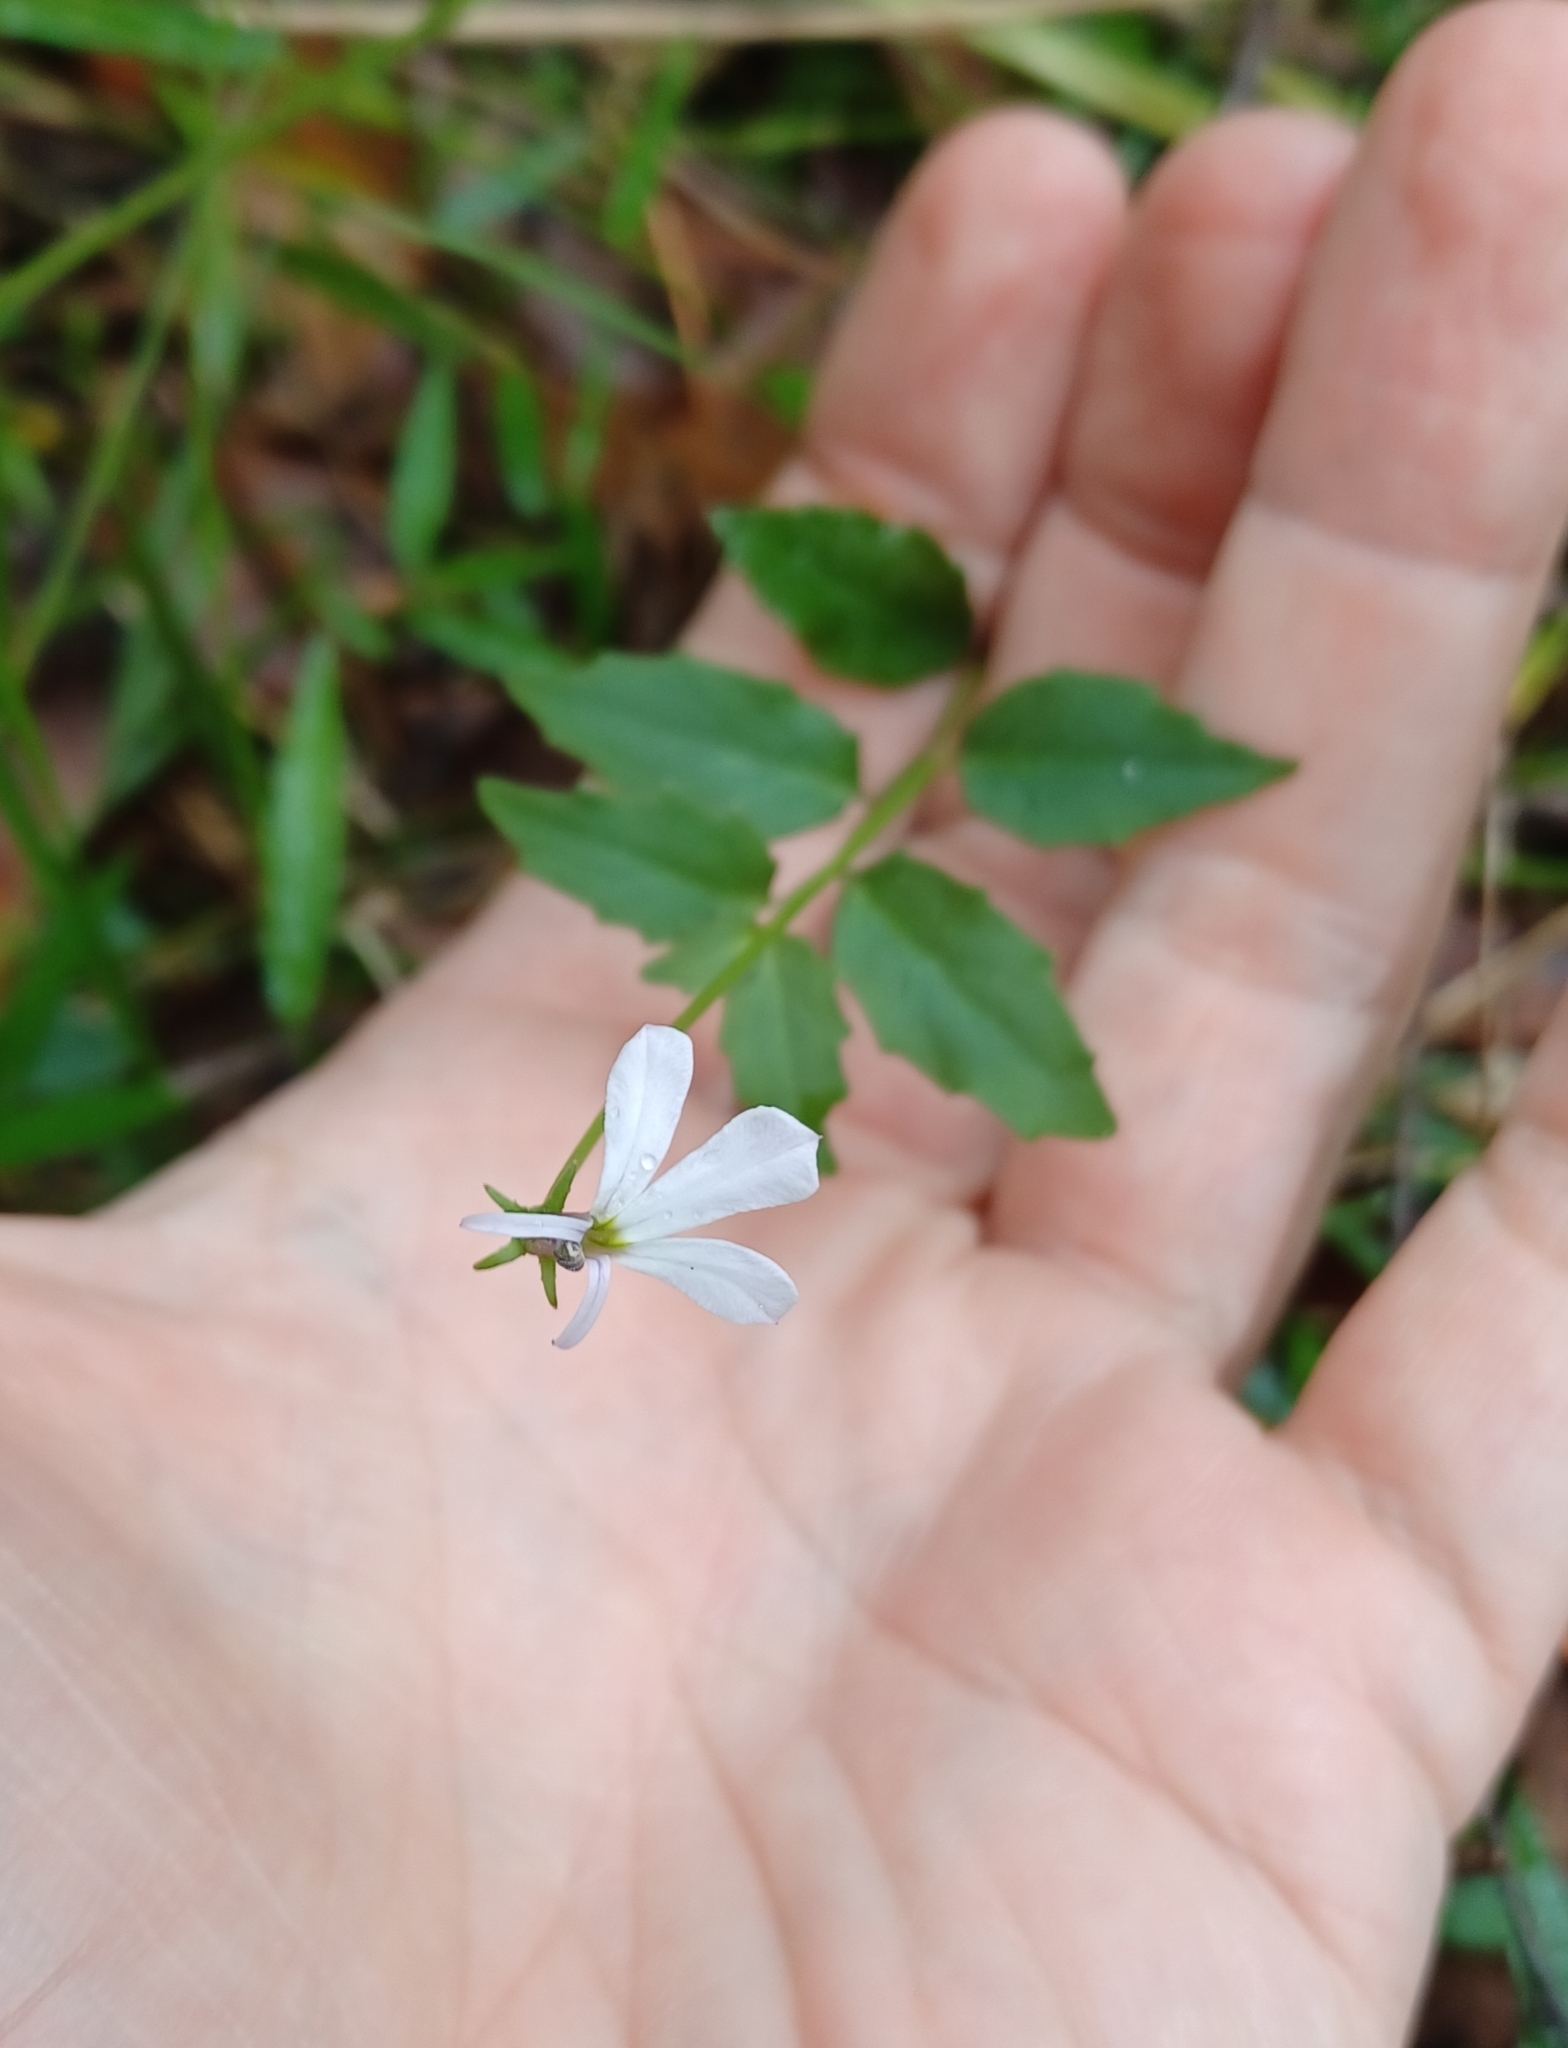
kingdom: Plantae
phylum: Tracheophyta
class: Magnoliopsida
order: Asterales
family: Campanulaceae
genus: Lobelia
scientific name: Lobelia purpurascens
